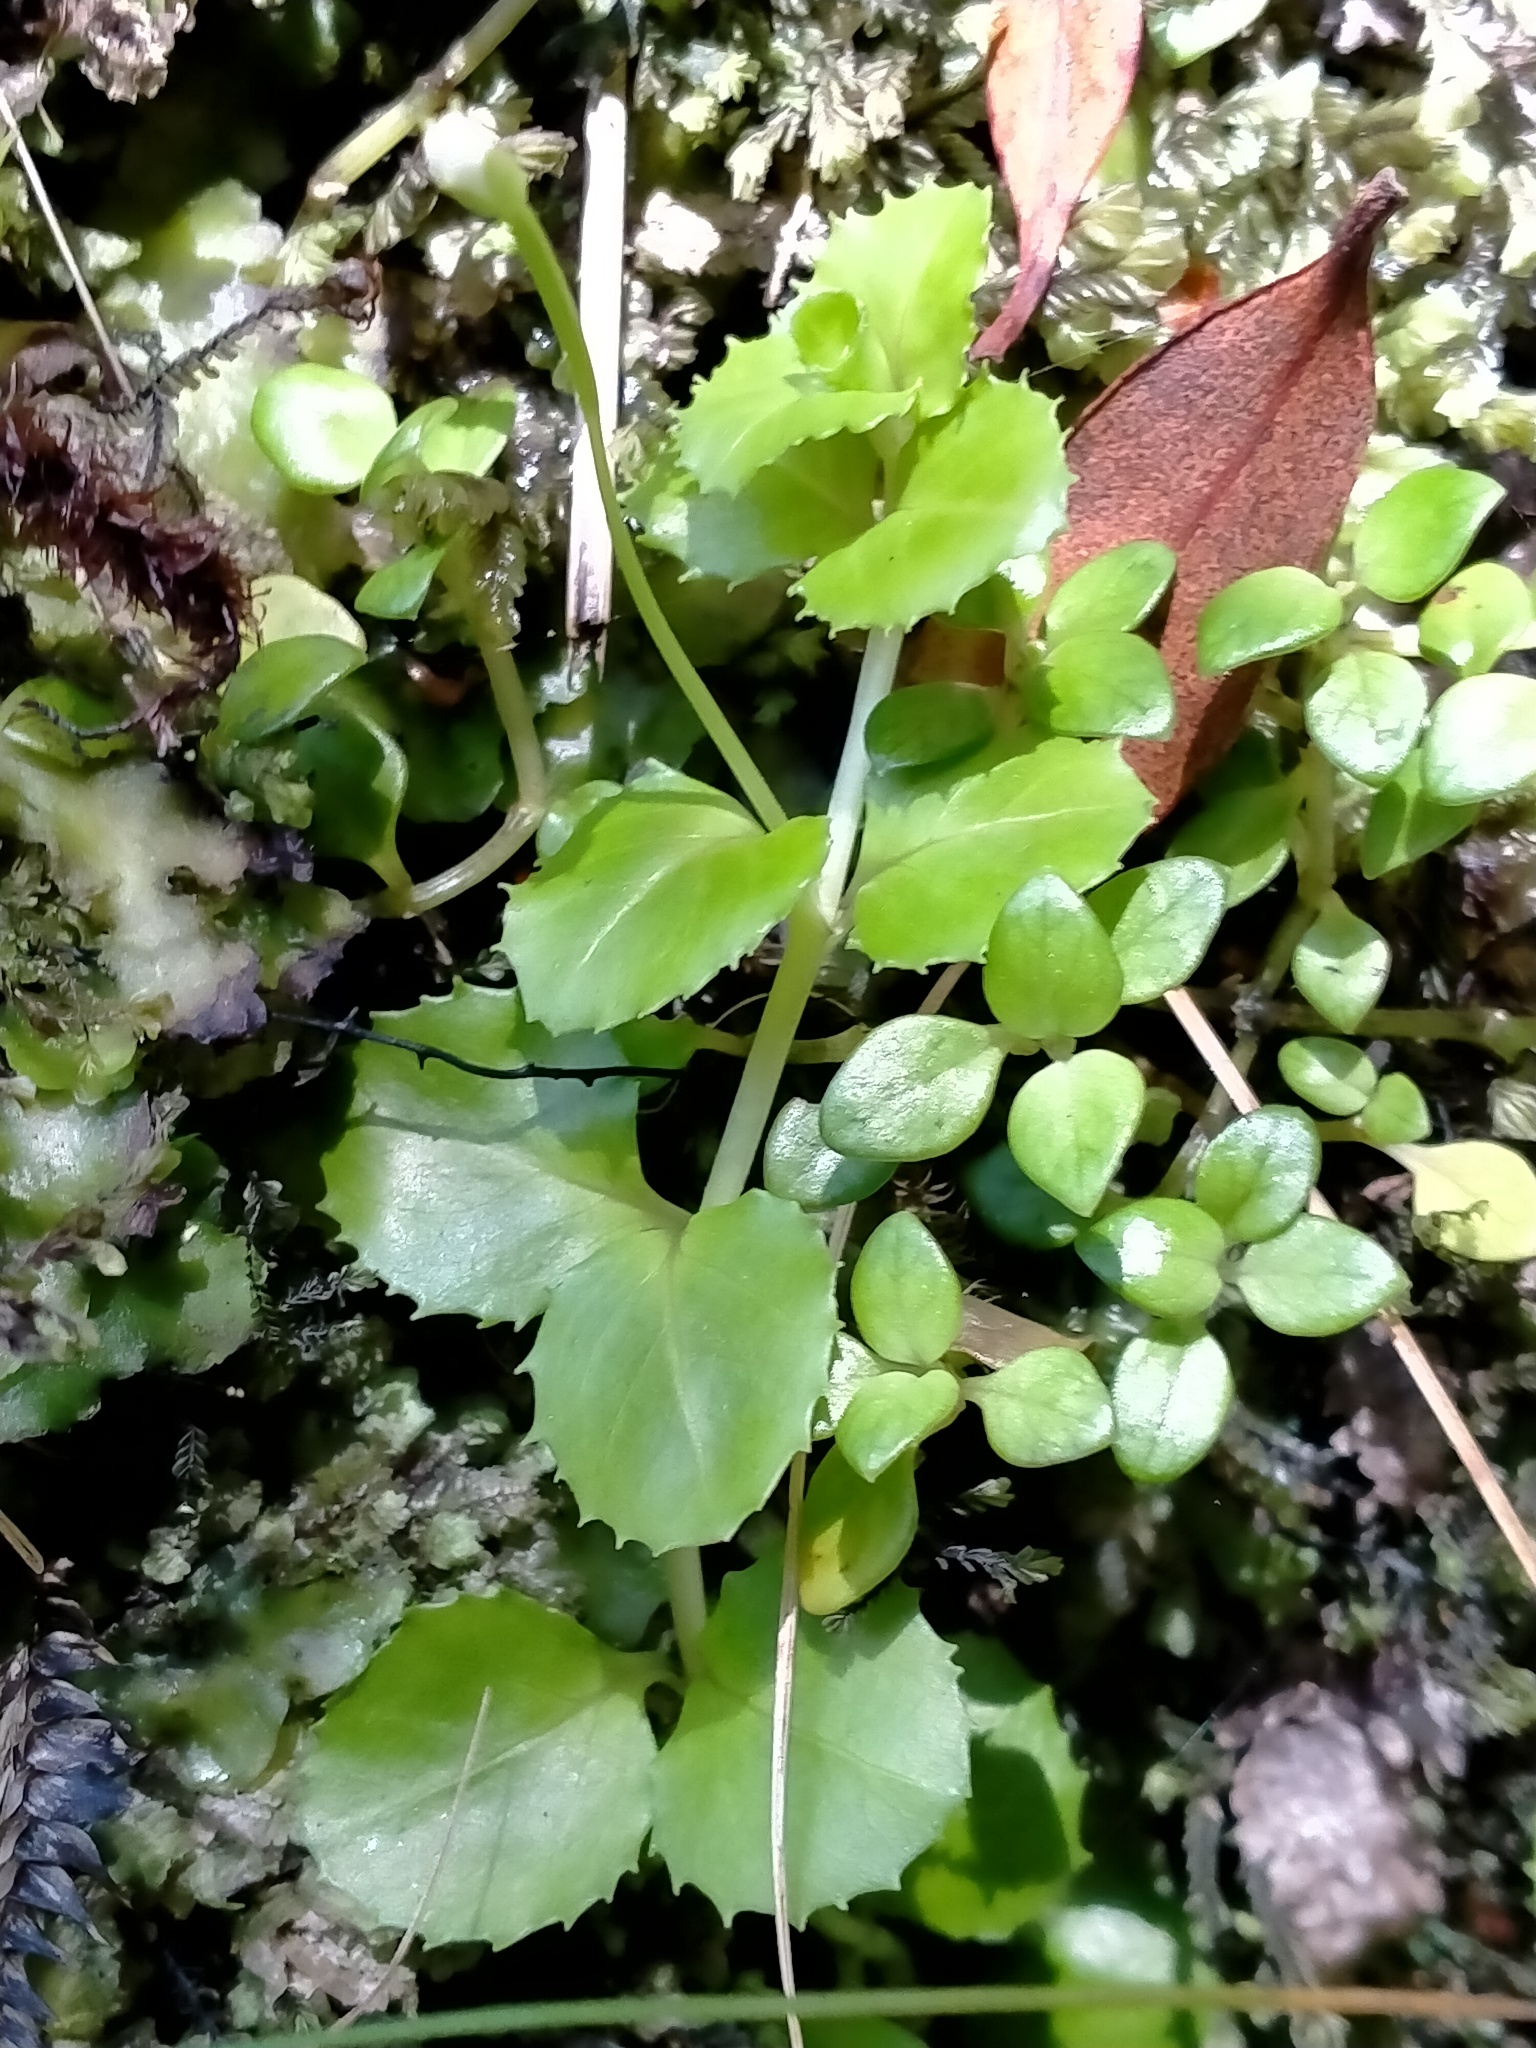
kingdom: Plantae
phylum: Tracheophyta
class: Magnoliopsida
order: Myrtales
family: Onagraceae
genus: Epilobium
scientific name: Epilobium pedunculare
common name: Rockery willowherb
